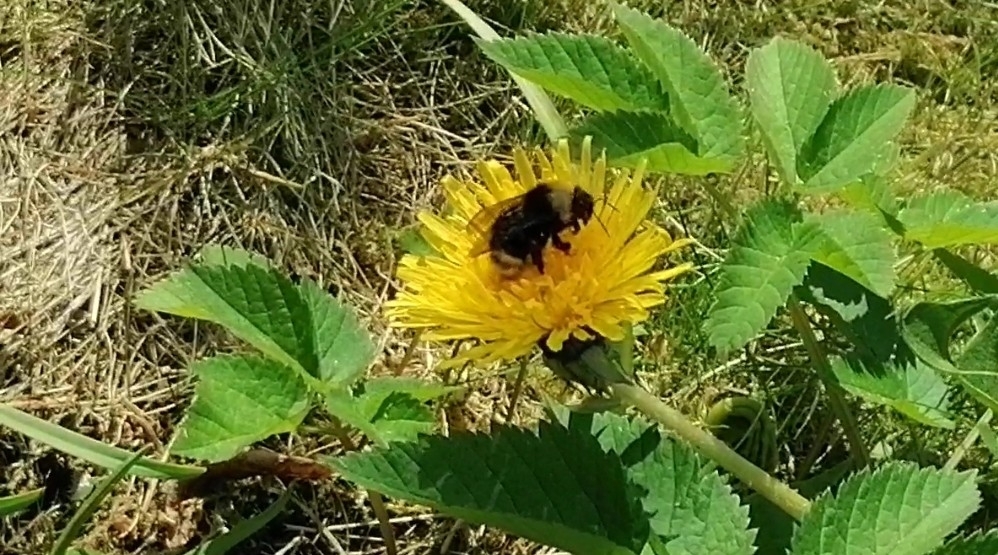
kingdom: Animalia
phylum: Arthropoda
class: Insecta
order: Hymenoptera
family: Apidae
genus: Bombus
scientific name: Bombus
